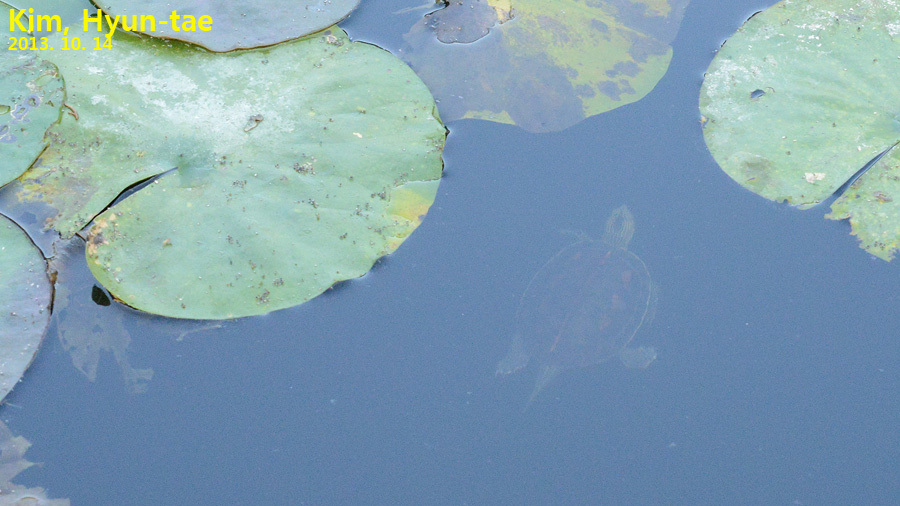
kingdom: Animalia
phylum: Chordata
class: Testudines
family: Geoemydidae
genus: Mauremys
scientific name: Mauremys sinensis
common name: Chinese stripe-necked turtle
